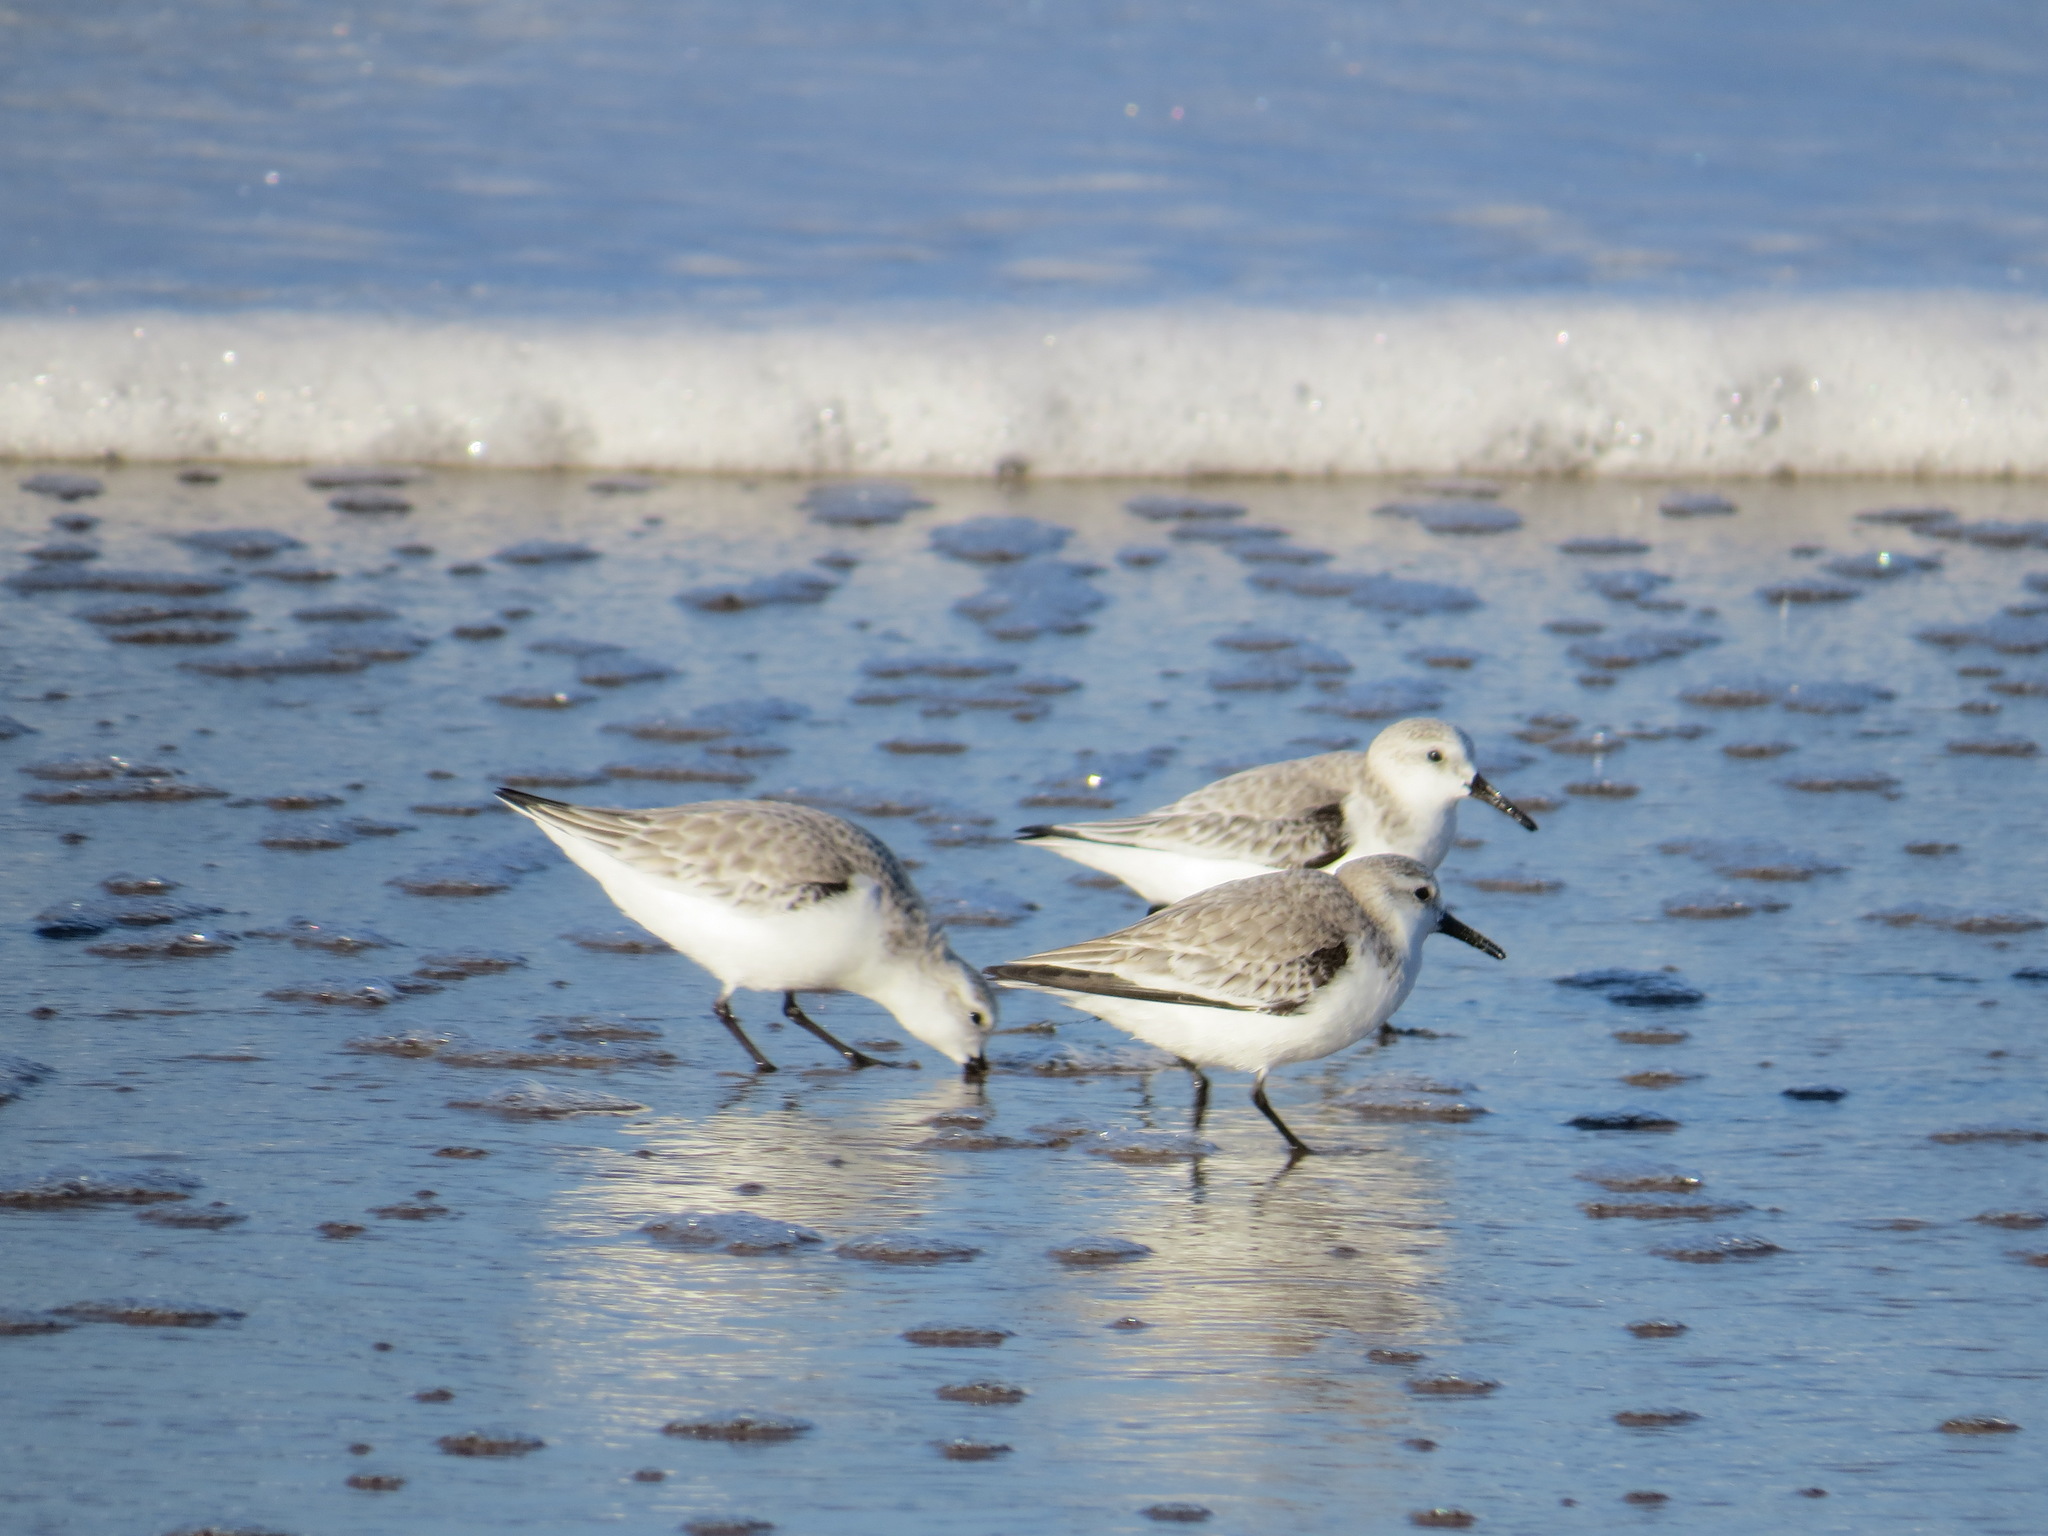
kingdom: Animalia
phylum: Chordata
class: Aves
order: Charadriiformes
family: Scolopacidae
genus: Calidris
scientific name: Calidris alba
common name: Sanderling
